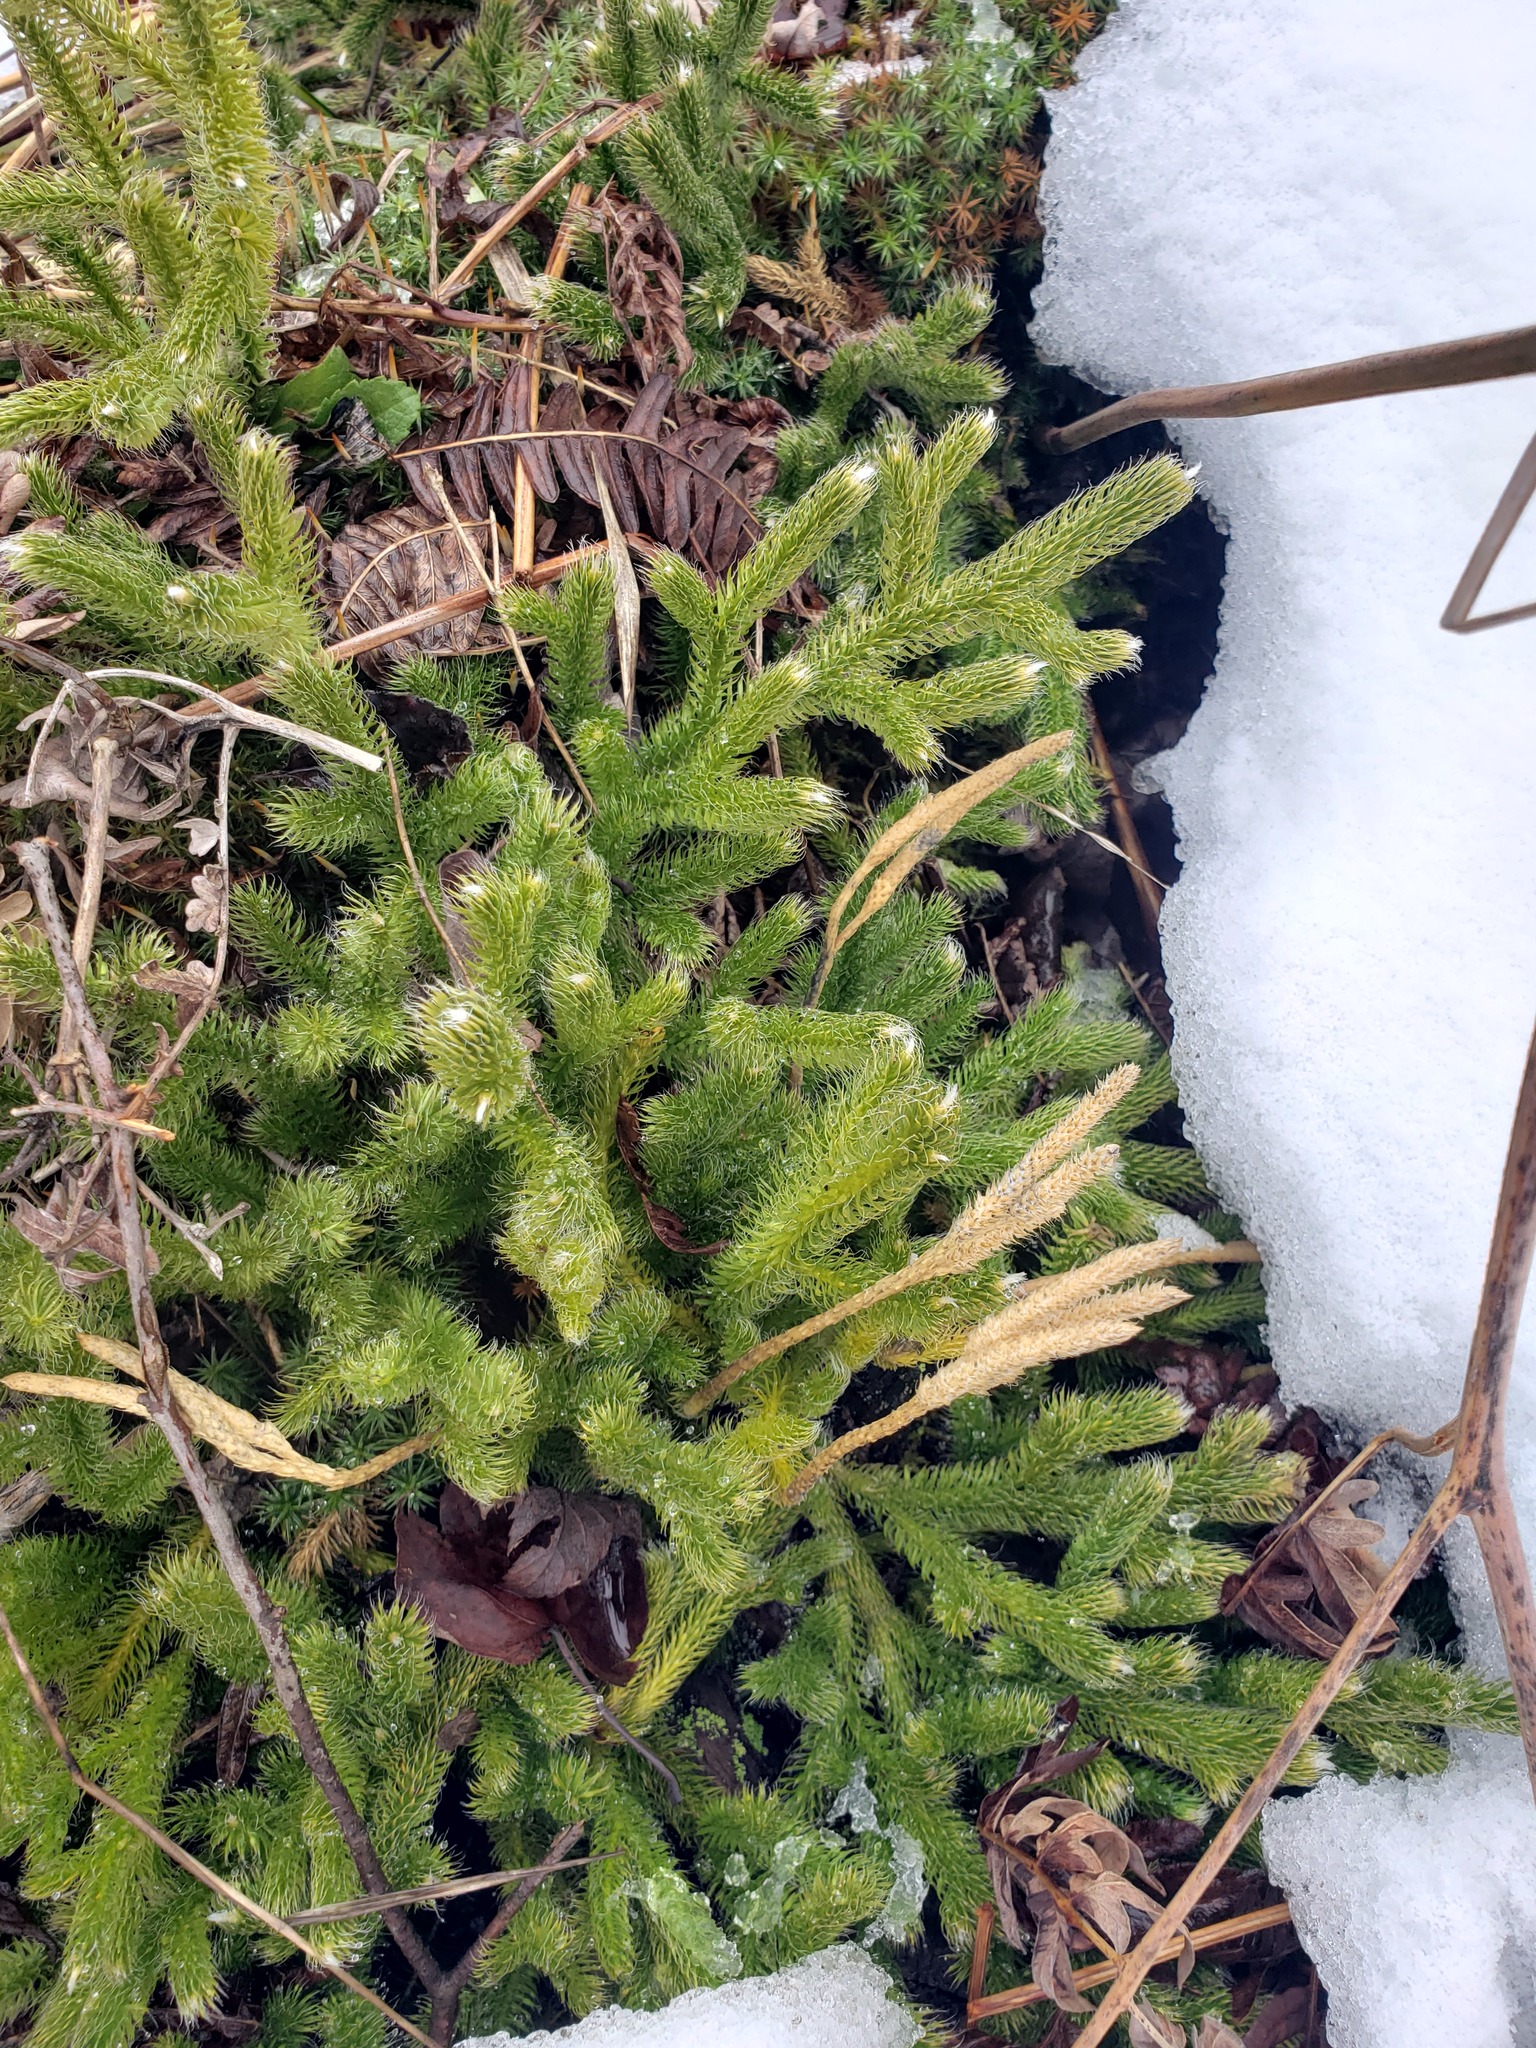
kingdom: Plantae
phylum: Tracheophyta
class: Lycopodiopsida
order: Lycopodiales
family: Lycopodiaceae
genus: Lycopodium
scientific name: Lycopodium clavatum
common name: Stag's-horn clubmoss
